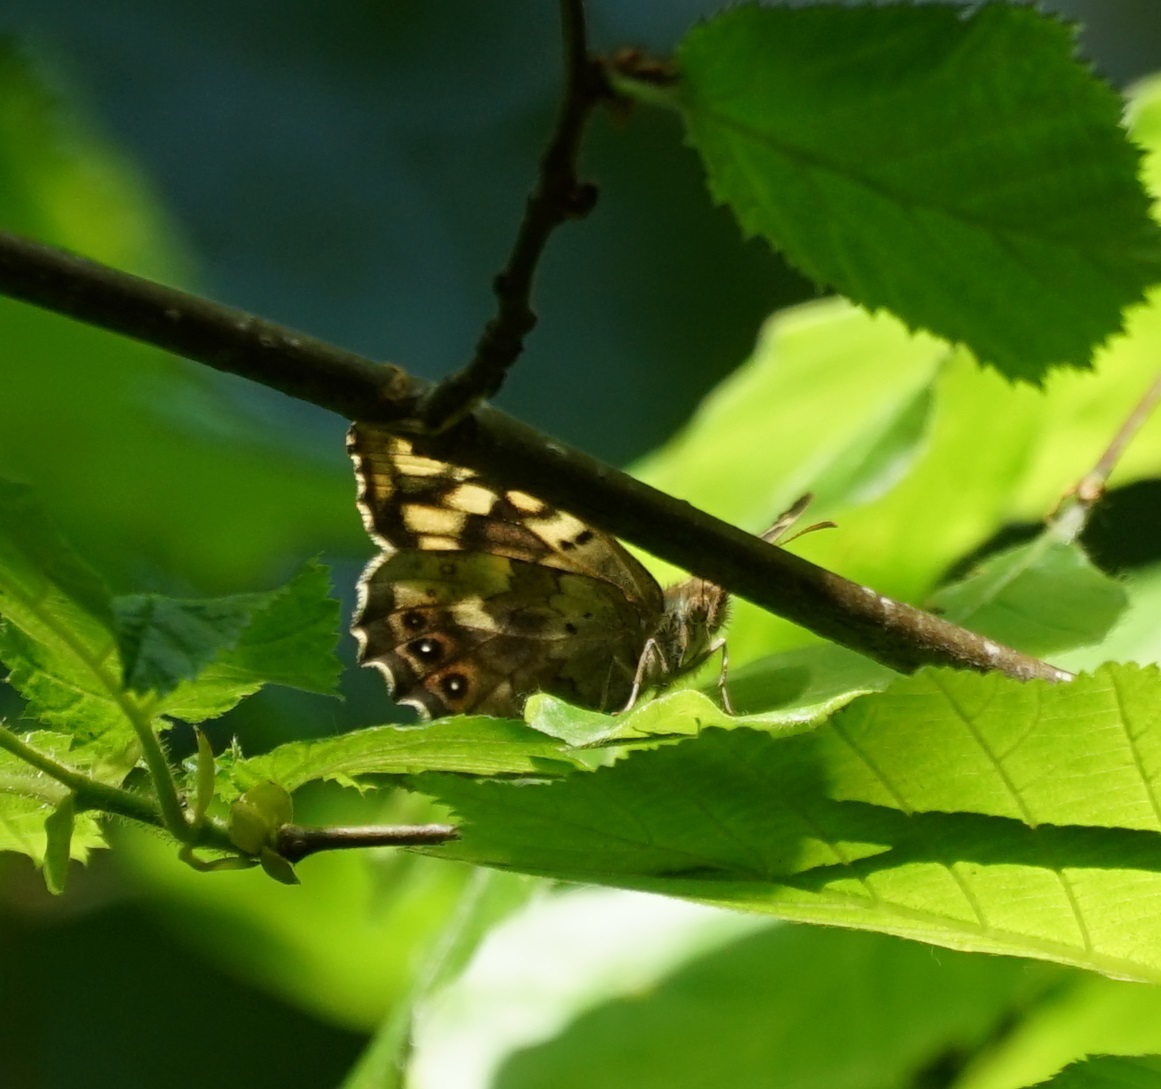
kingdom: Animalia
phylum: Arthropoda
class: Insecta
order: Lepidoptera
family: Nymphalidae
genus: Pararge
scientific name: Pararge aegeria
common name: Speckled wood
